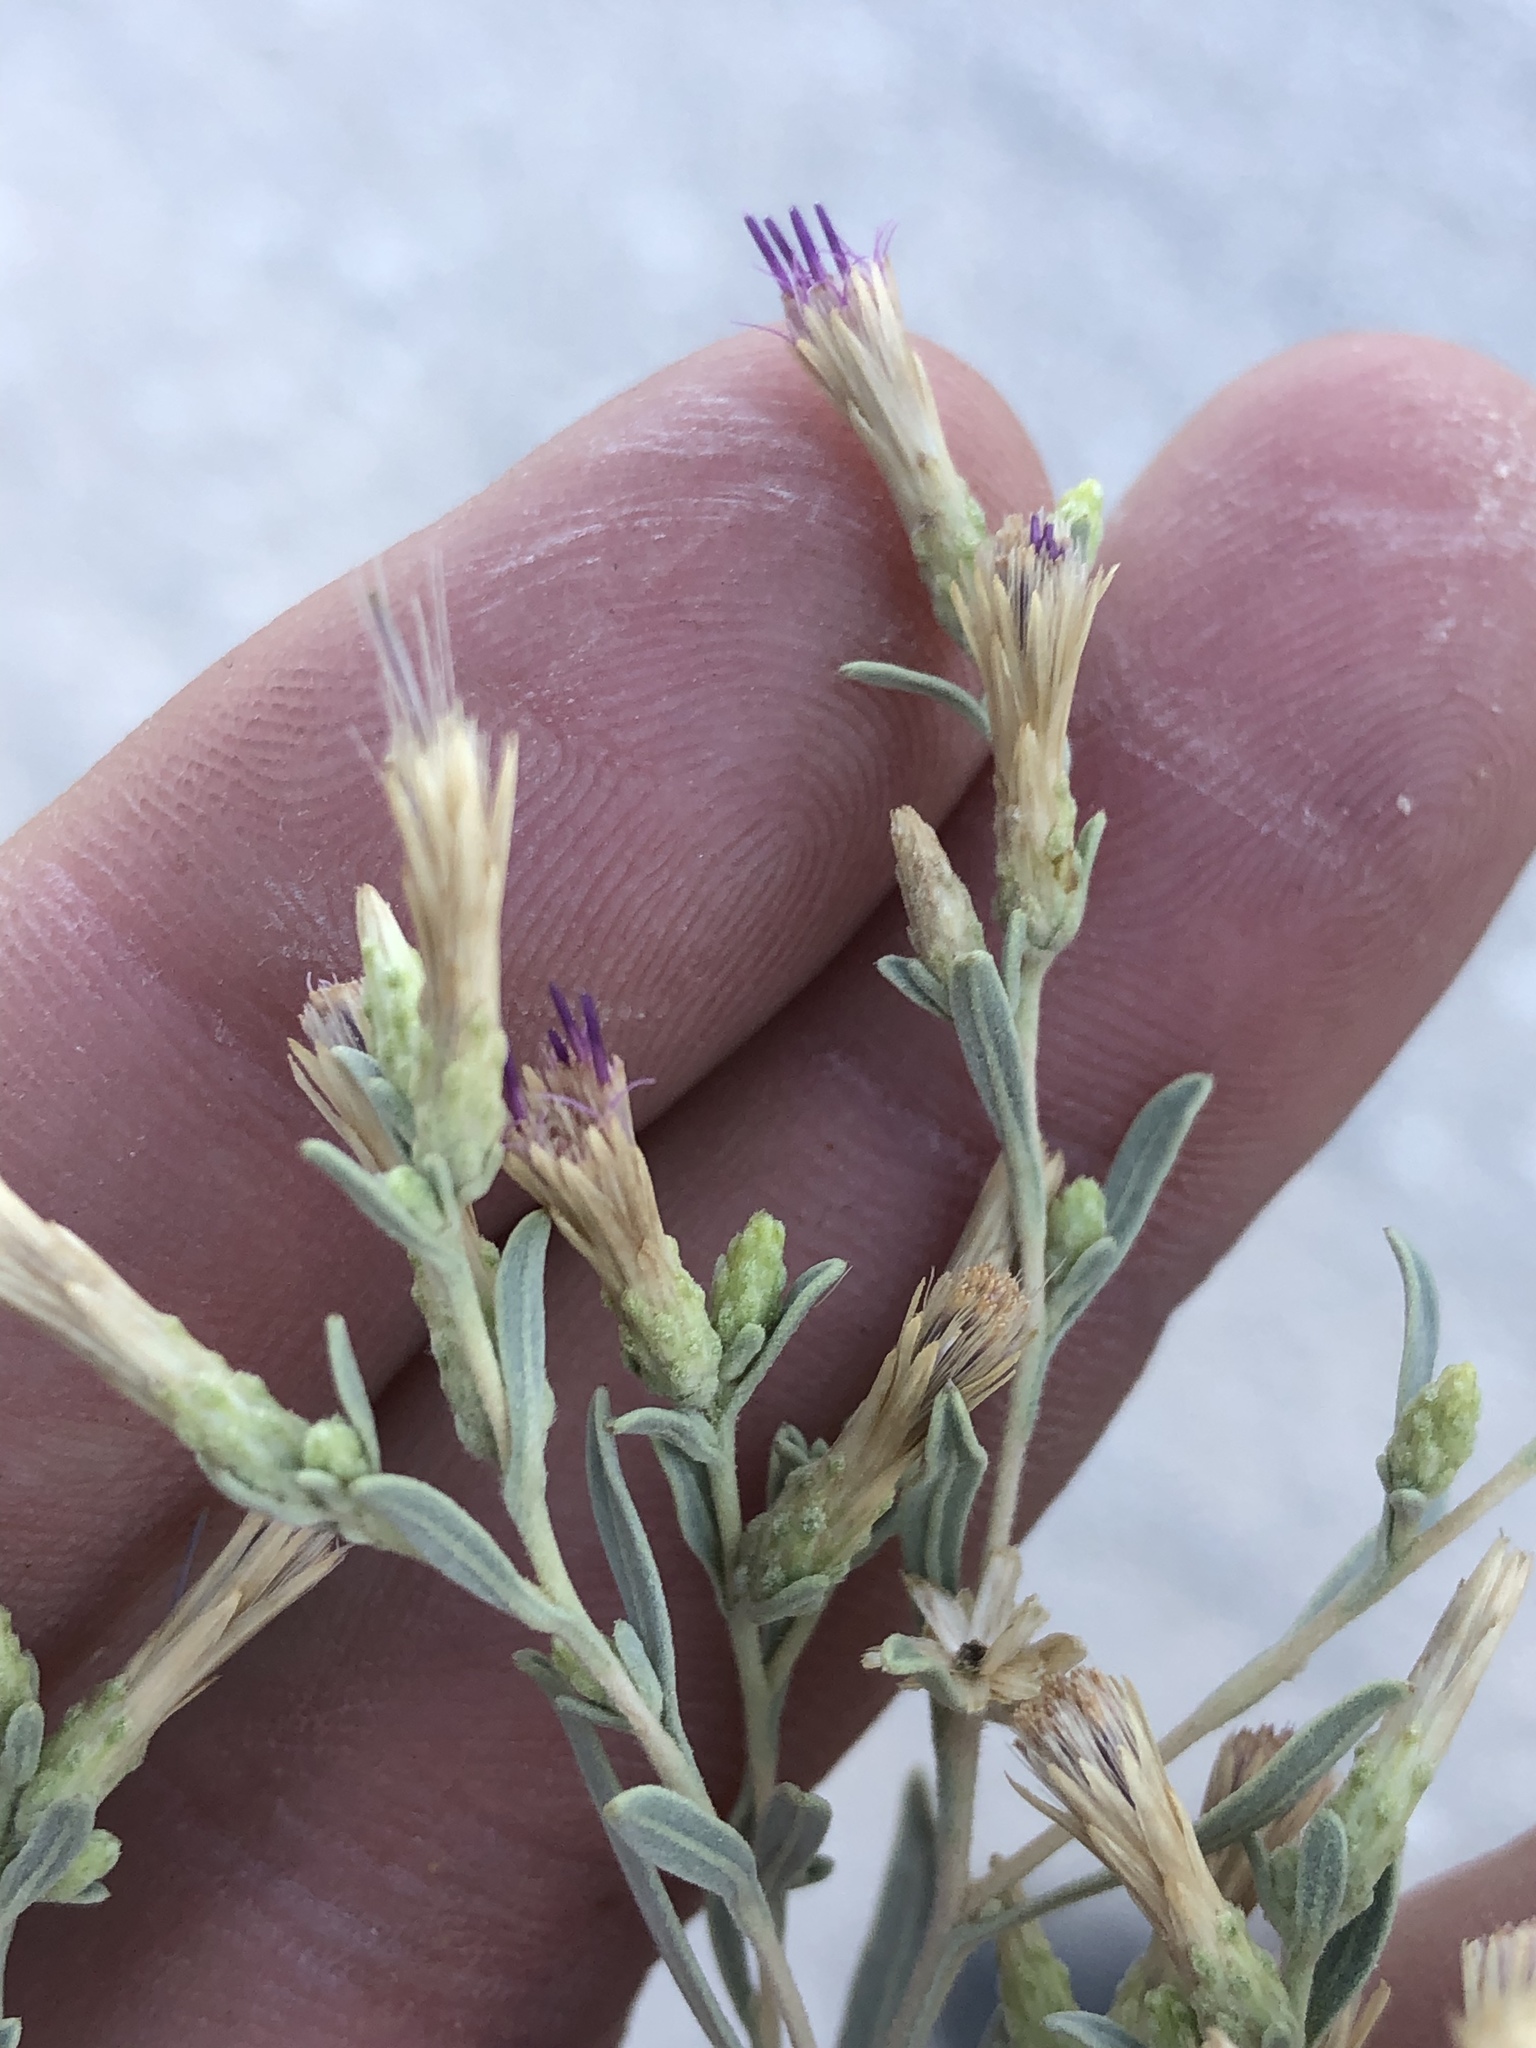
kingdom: Plantae
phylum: Tracheophyta
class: Magnoliopsida
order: Asterales
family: Asteraceae
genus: Pechuel-loeschea
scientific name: Pechuel-loeschea leubnitziae
